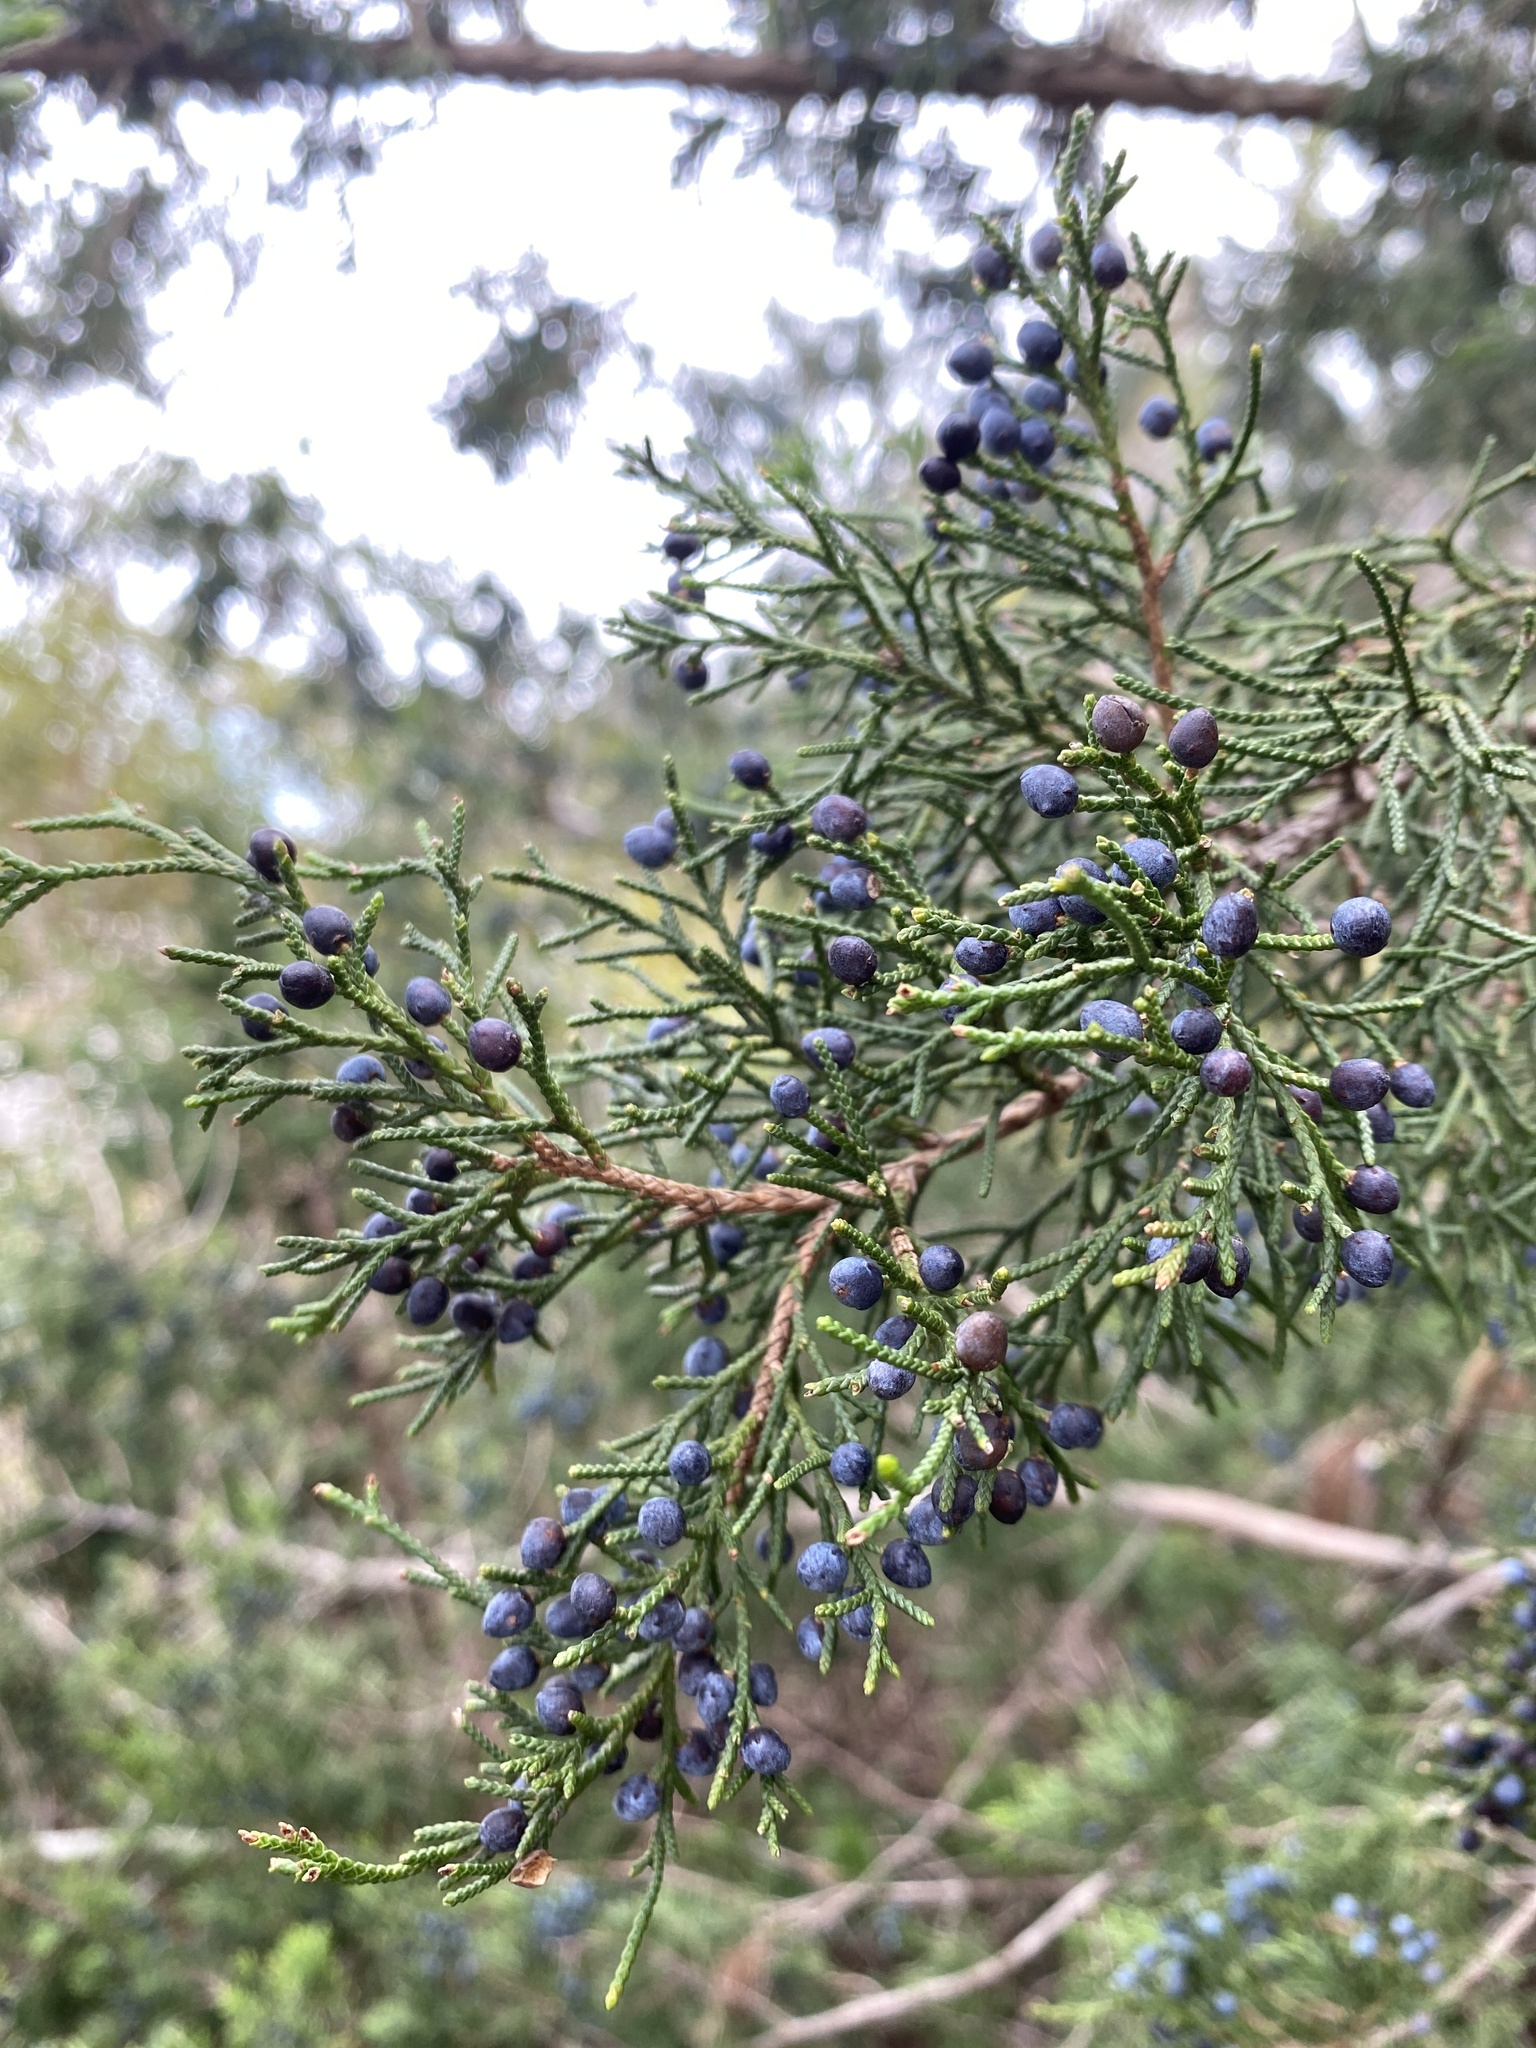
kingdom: Plantae
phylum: Tracheophyta
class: Pinopsida
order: Pinales
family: Cupressaceae
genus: Juniperus
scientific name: Juniperus virginiana
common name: Red juniper
